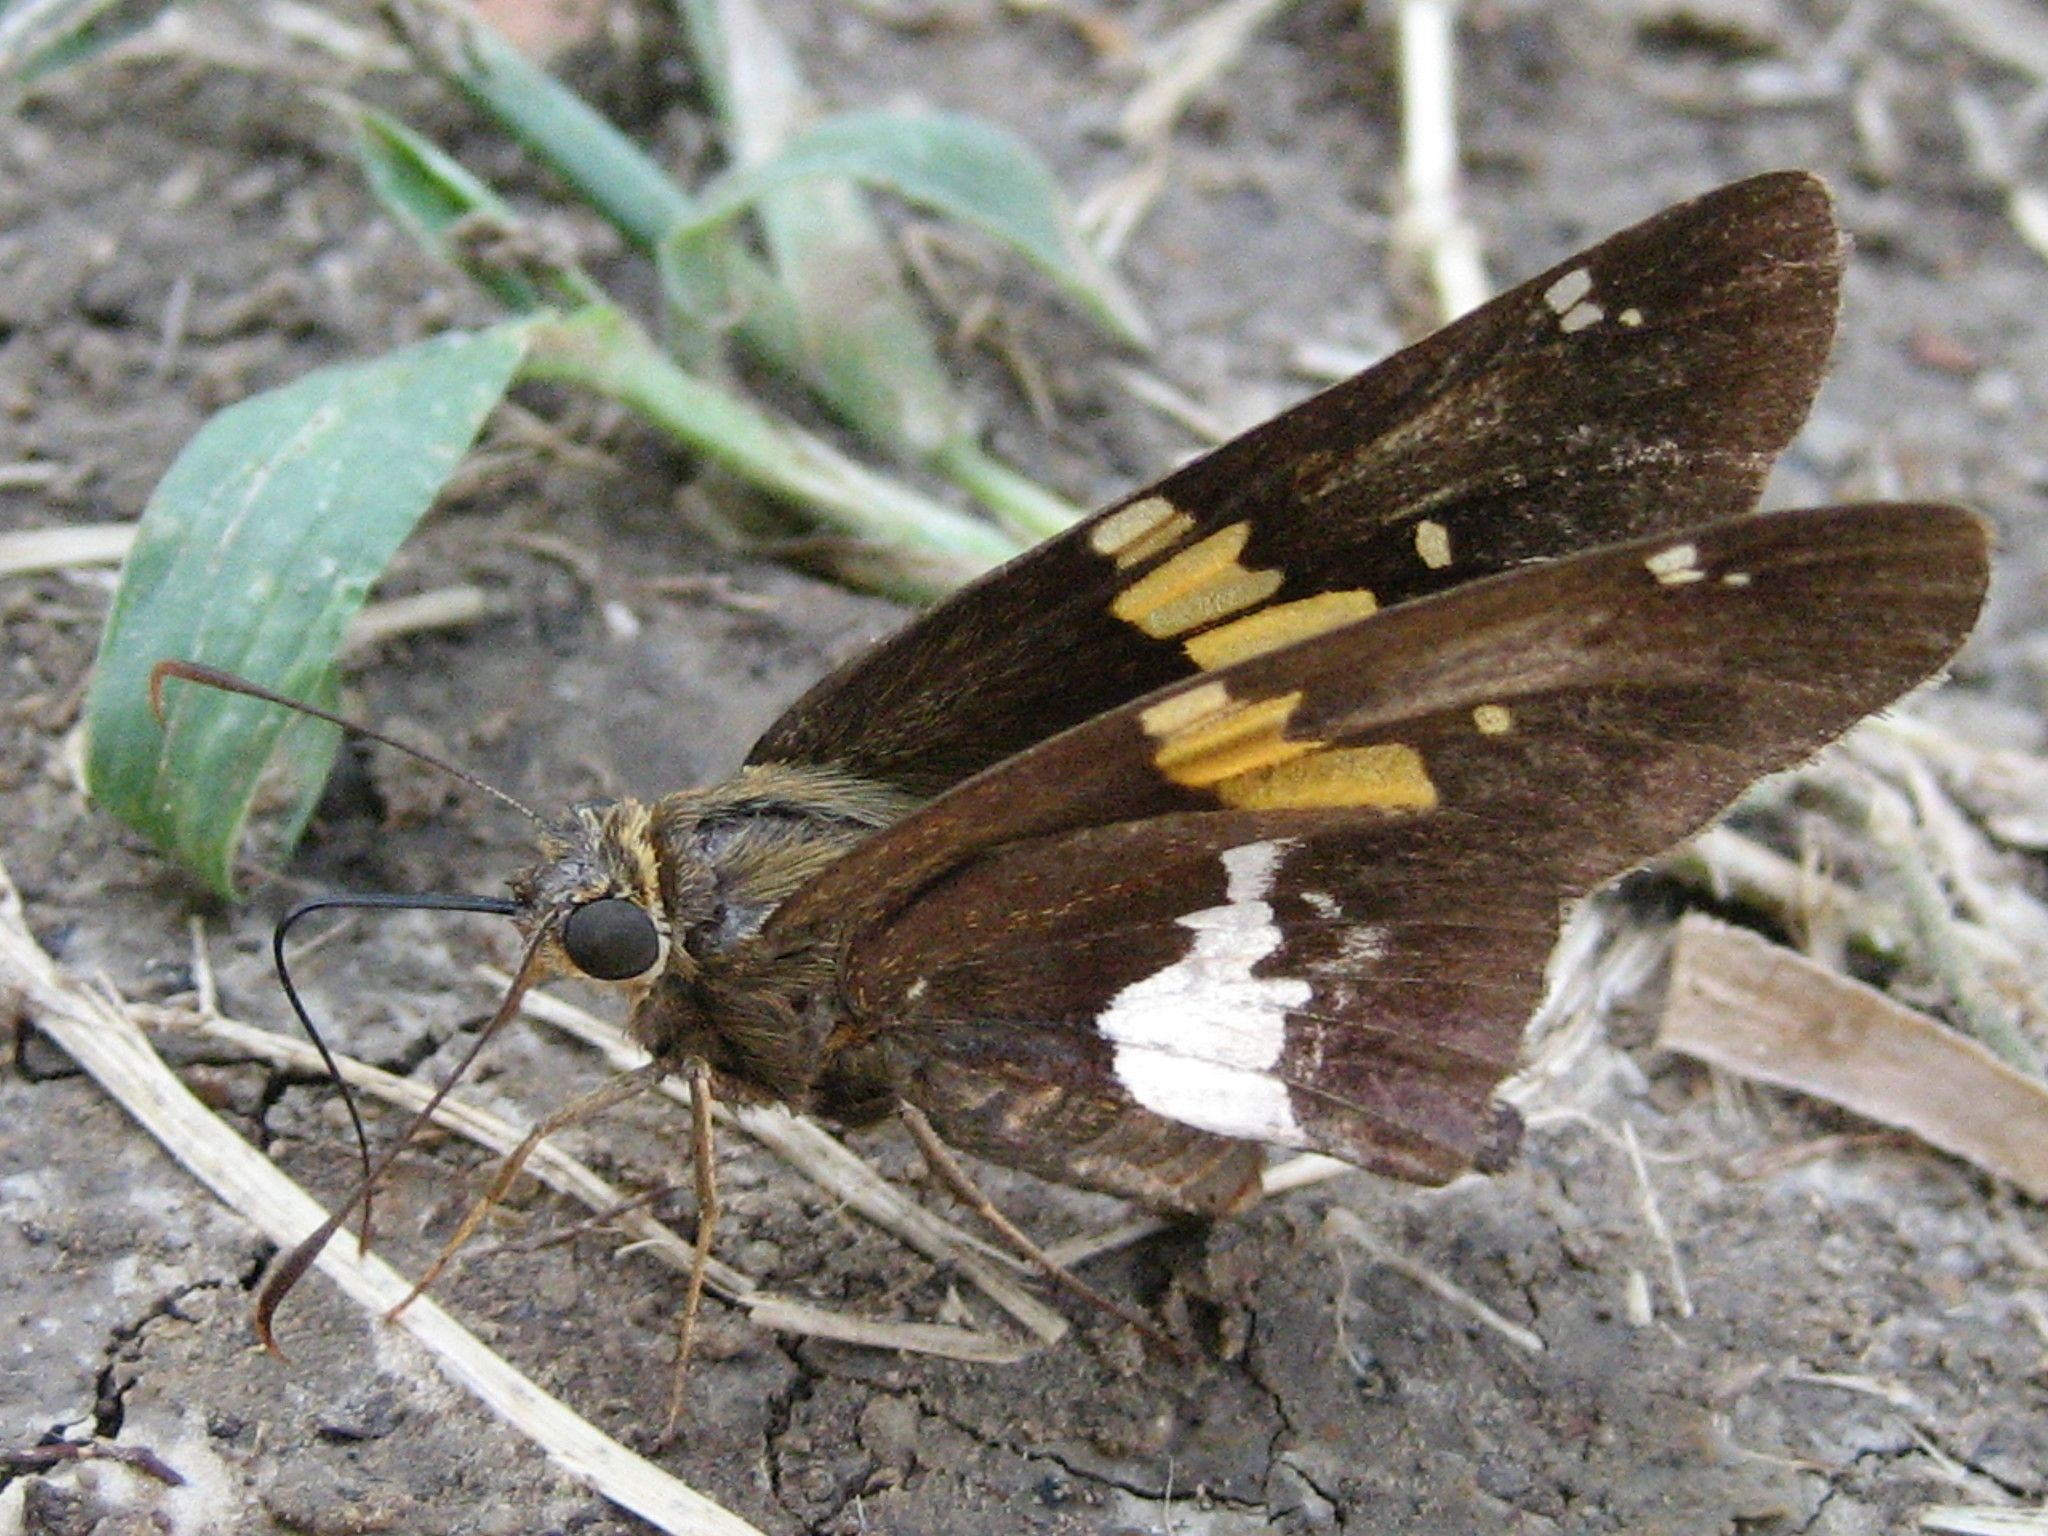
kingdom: Animalia
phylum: Arthropoda
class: Insecta
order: Lepidoptera
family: Hesperiidae
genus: Epargyreus
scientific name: Epargyreus clarus
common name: Silver-spotted skipper
